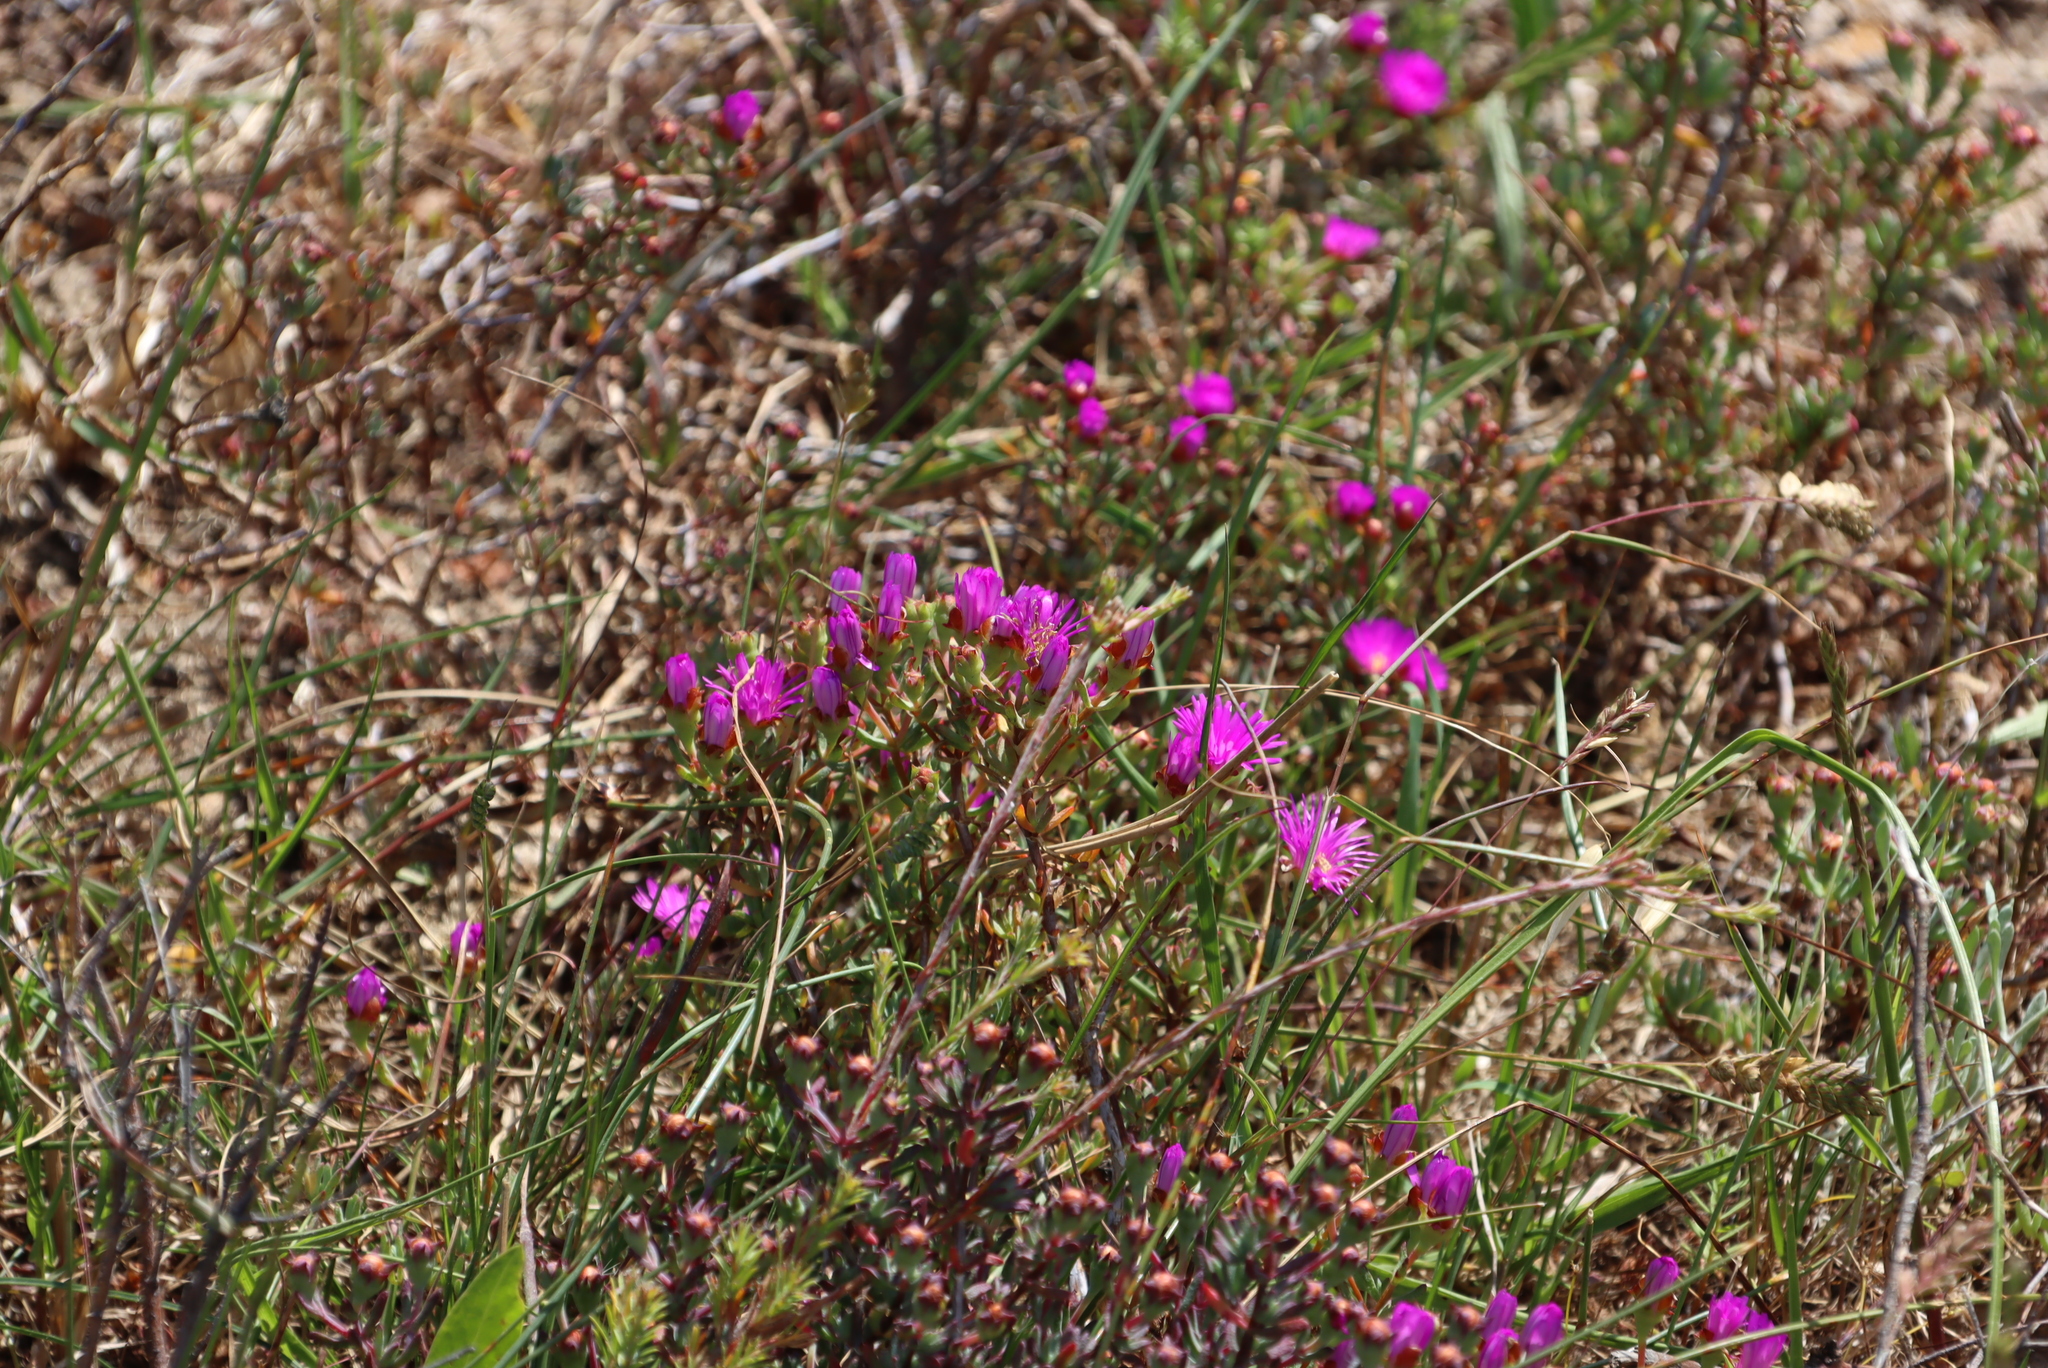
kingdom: Plantae
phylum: Tracheophyta
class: Magnoliopsida
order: Caryophyllales
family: Aizoaceae
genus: Lampranthus
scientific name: Lampranthus emarginatus
